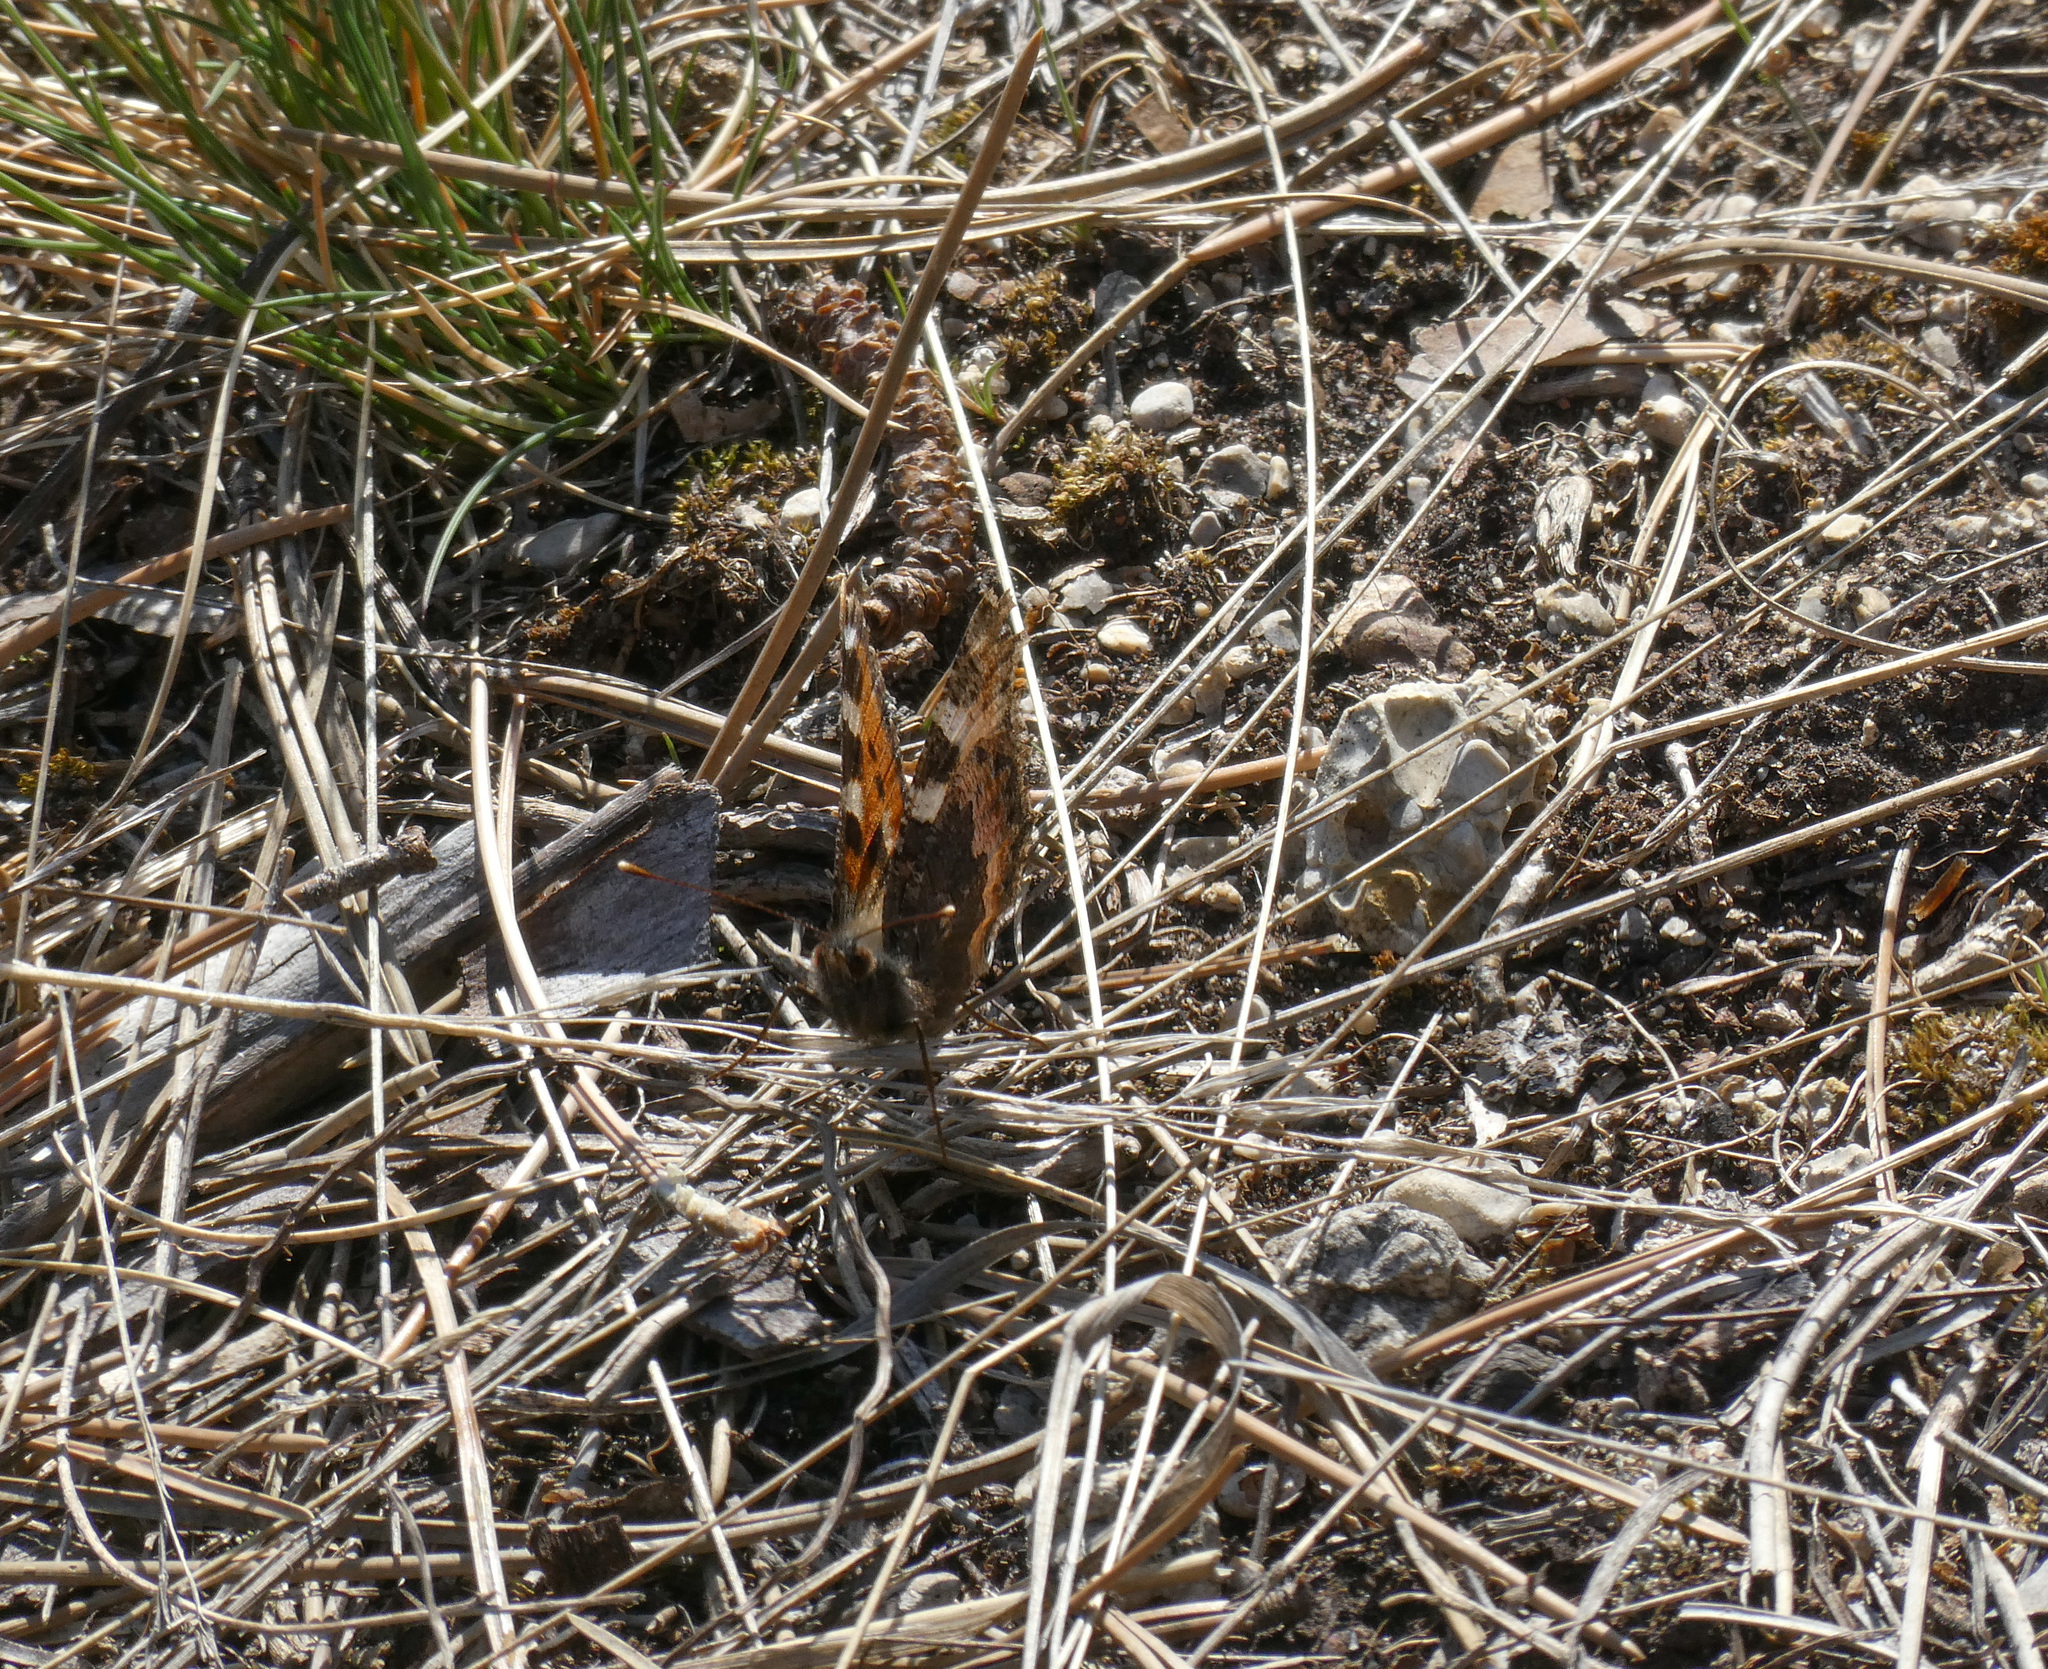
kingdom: Animalia
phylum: Arthropoda
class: Insecta
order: Lepidoptera
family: Nymphalidae
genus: Aglais
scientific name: Aglais urticae
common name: Small tortoiseshell
